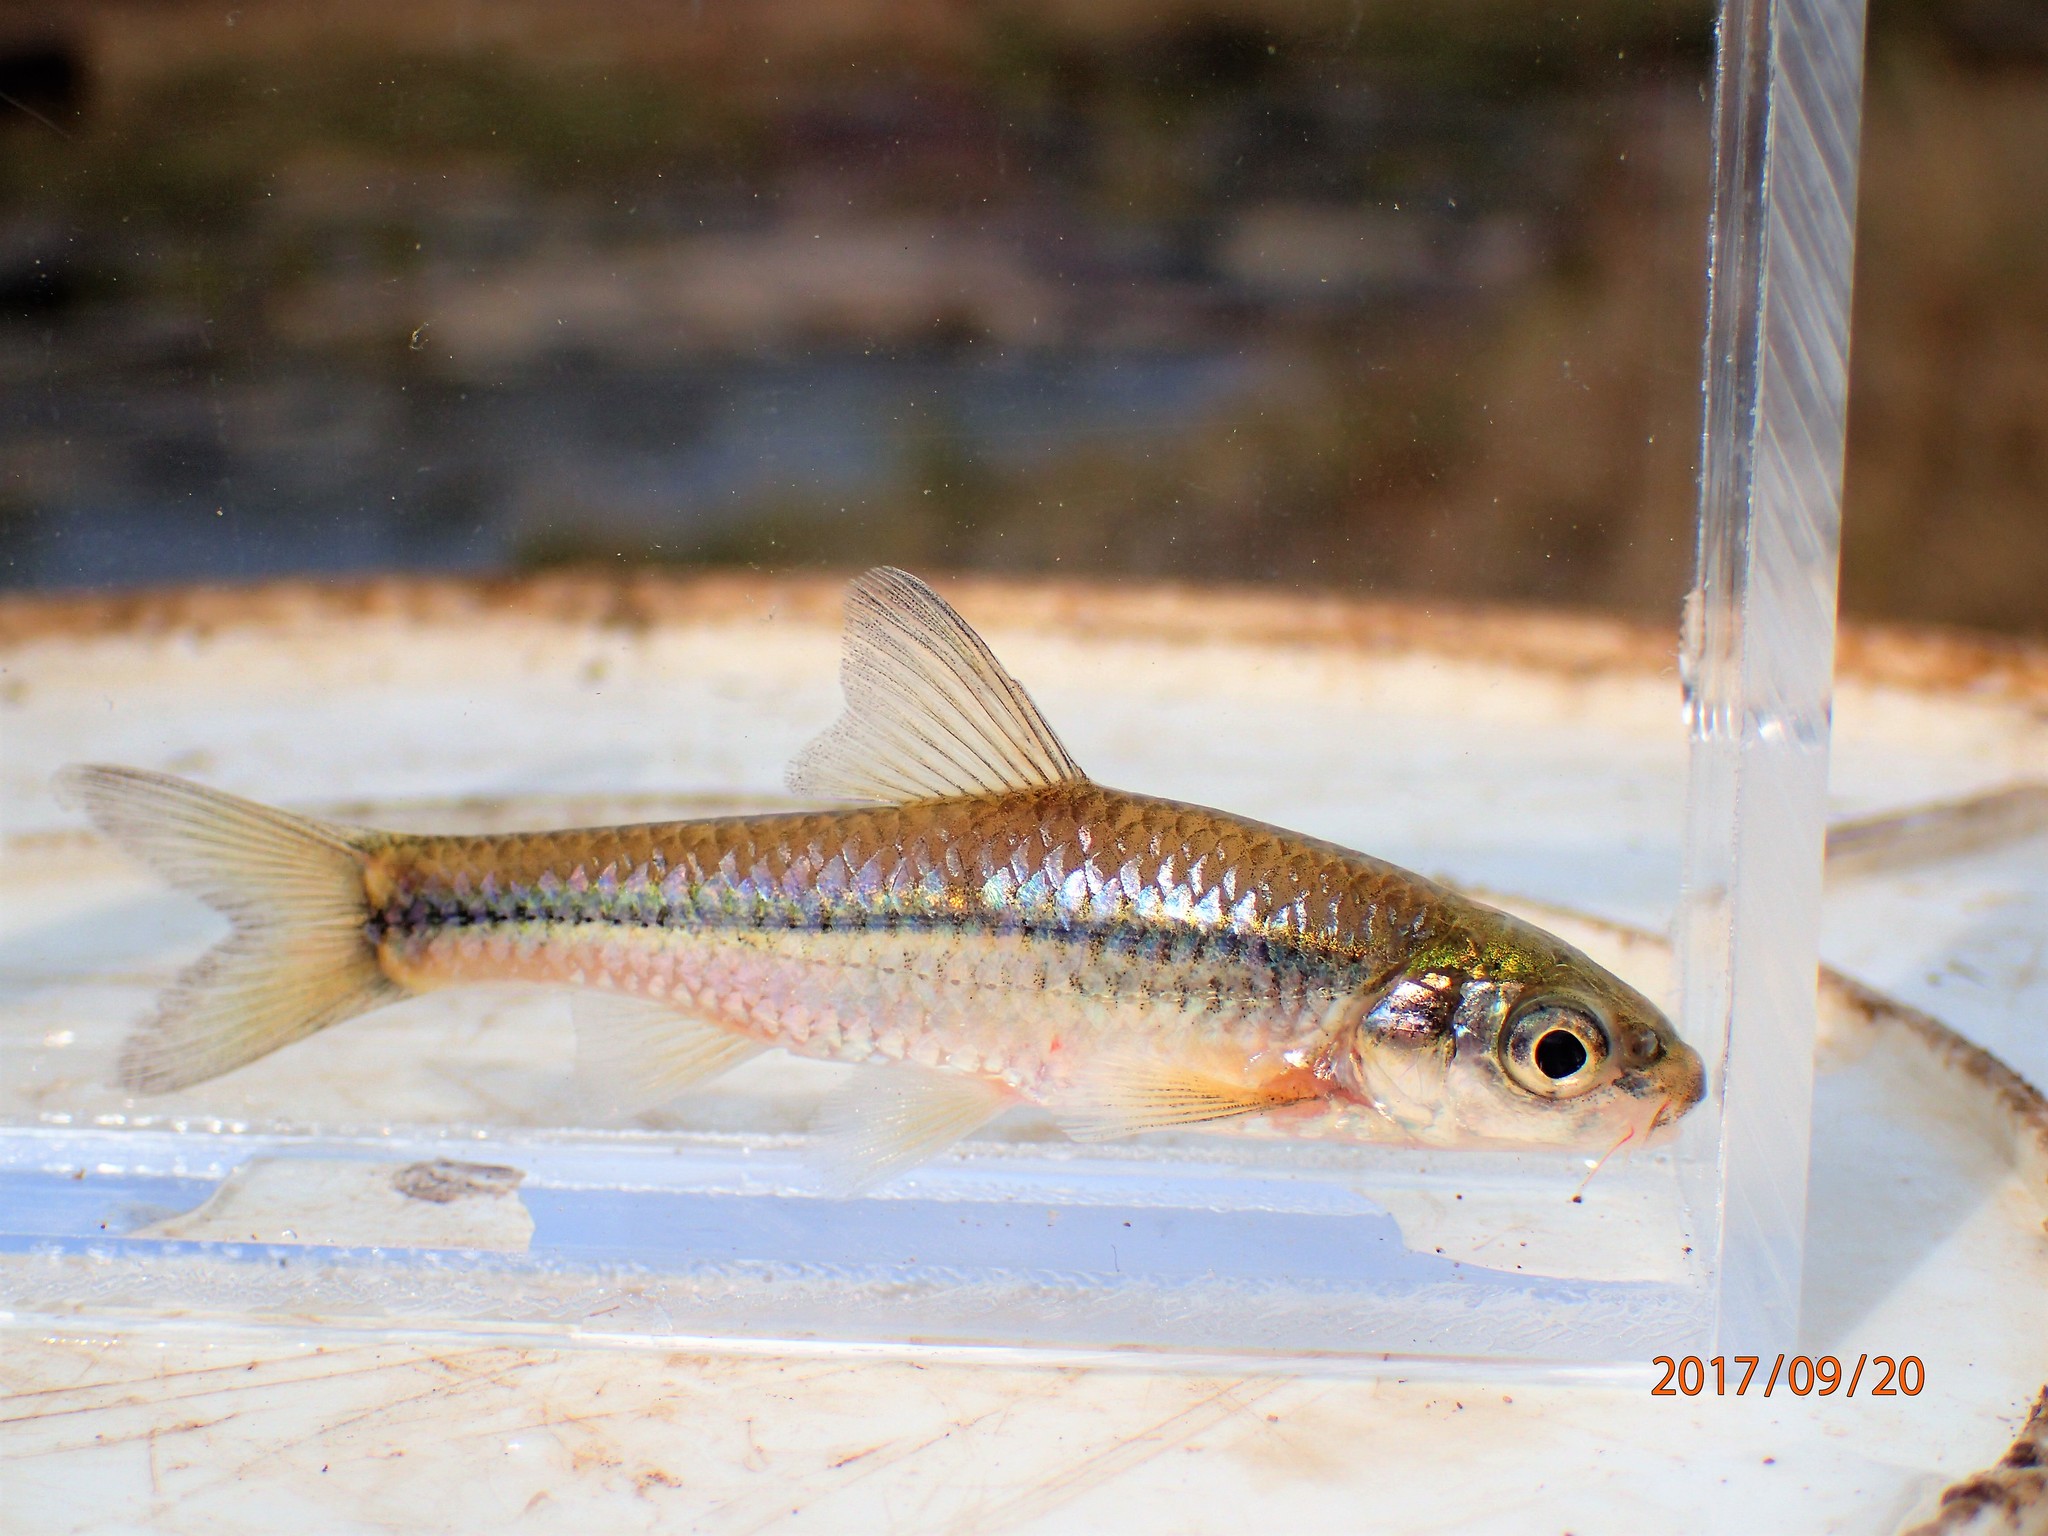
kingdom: Animalia
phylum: Chordata
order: Cypriniformes
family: Cyprinidae
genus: Enteromius
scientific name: Enteromius unitaeniatus
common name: Longbeard barb
